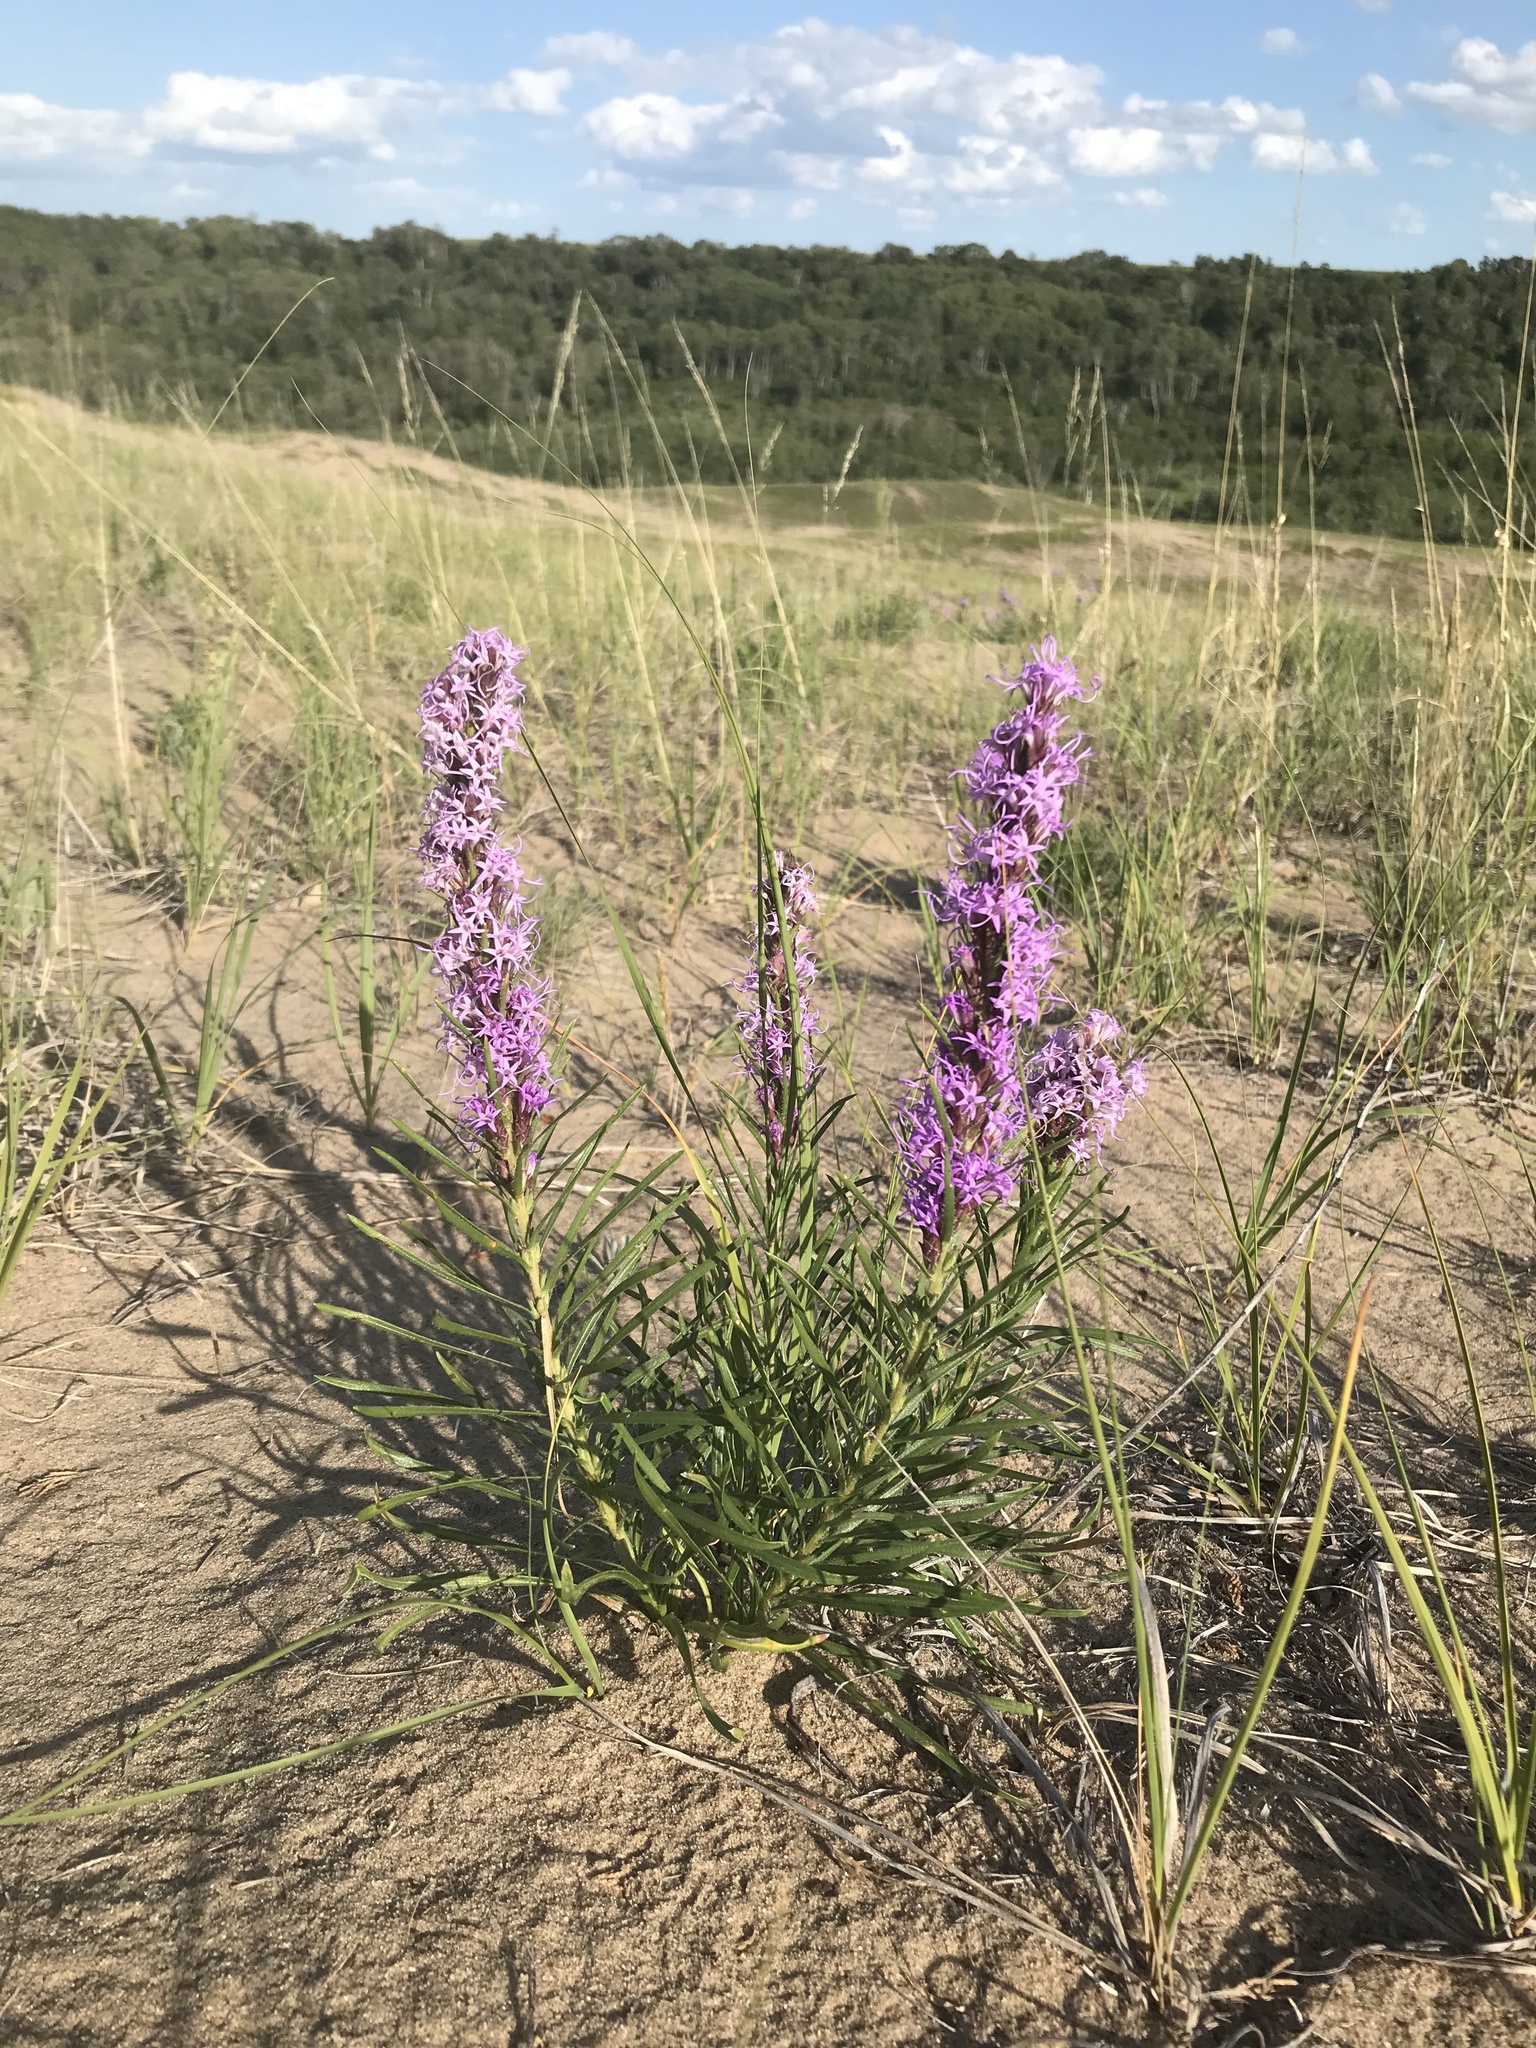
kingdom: Plantae
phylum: Tracheophyta
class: Magnoliopsida
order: Asterales
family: Asteraceae
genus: Liatris
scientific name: Liatris punctata
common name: Dotted gayfeather
